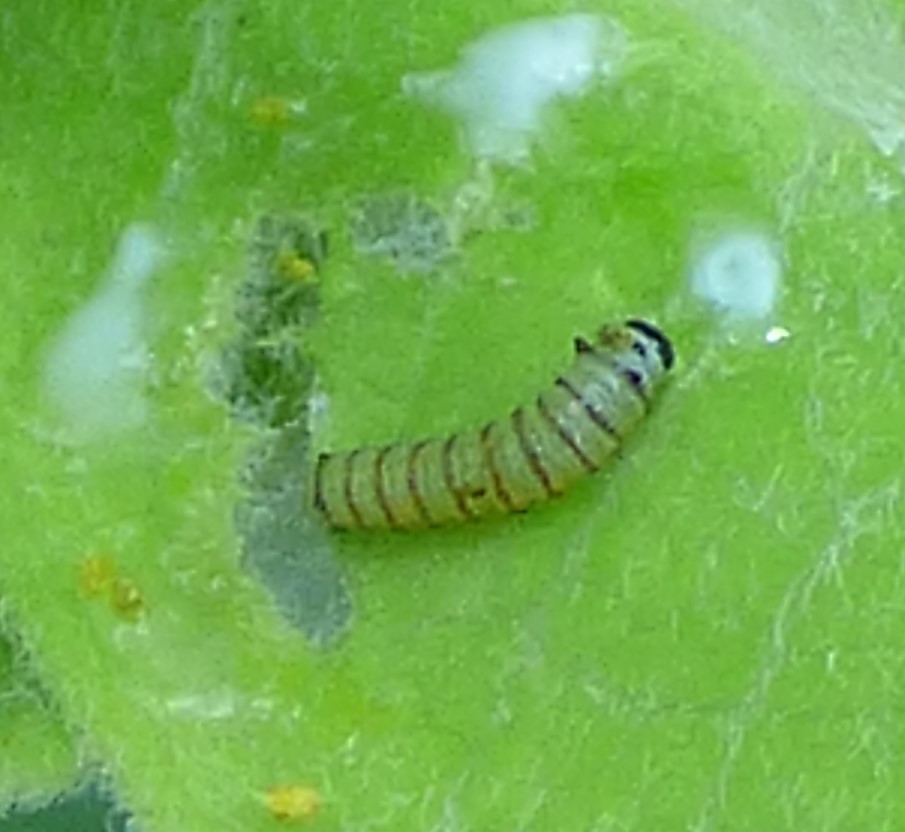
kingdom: Animalia
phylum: Arthropoda
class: Insecta
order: Lepidoptera
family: Nymphalidae
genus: Danaus
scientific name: Danaus plexippus
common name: Monarch
